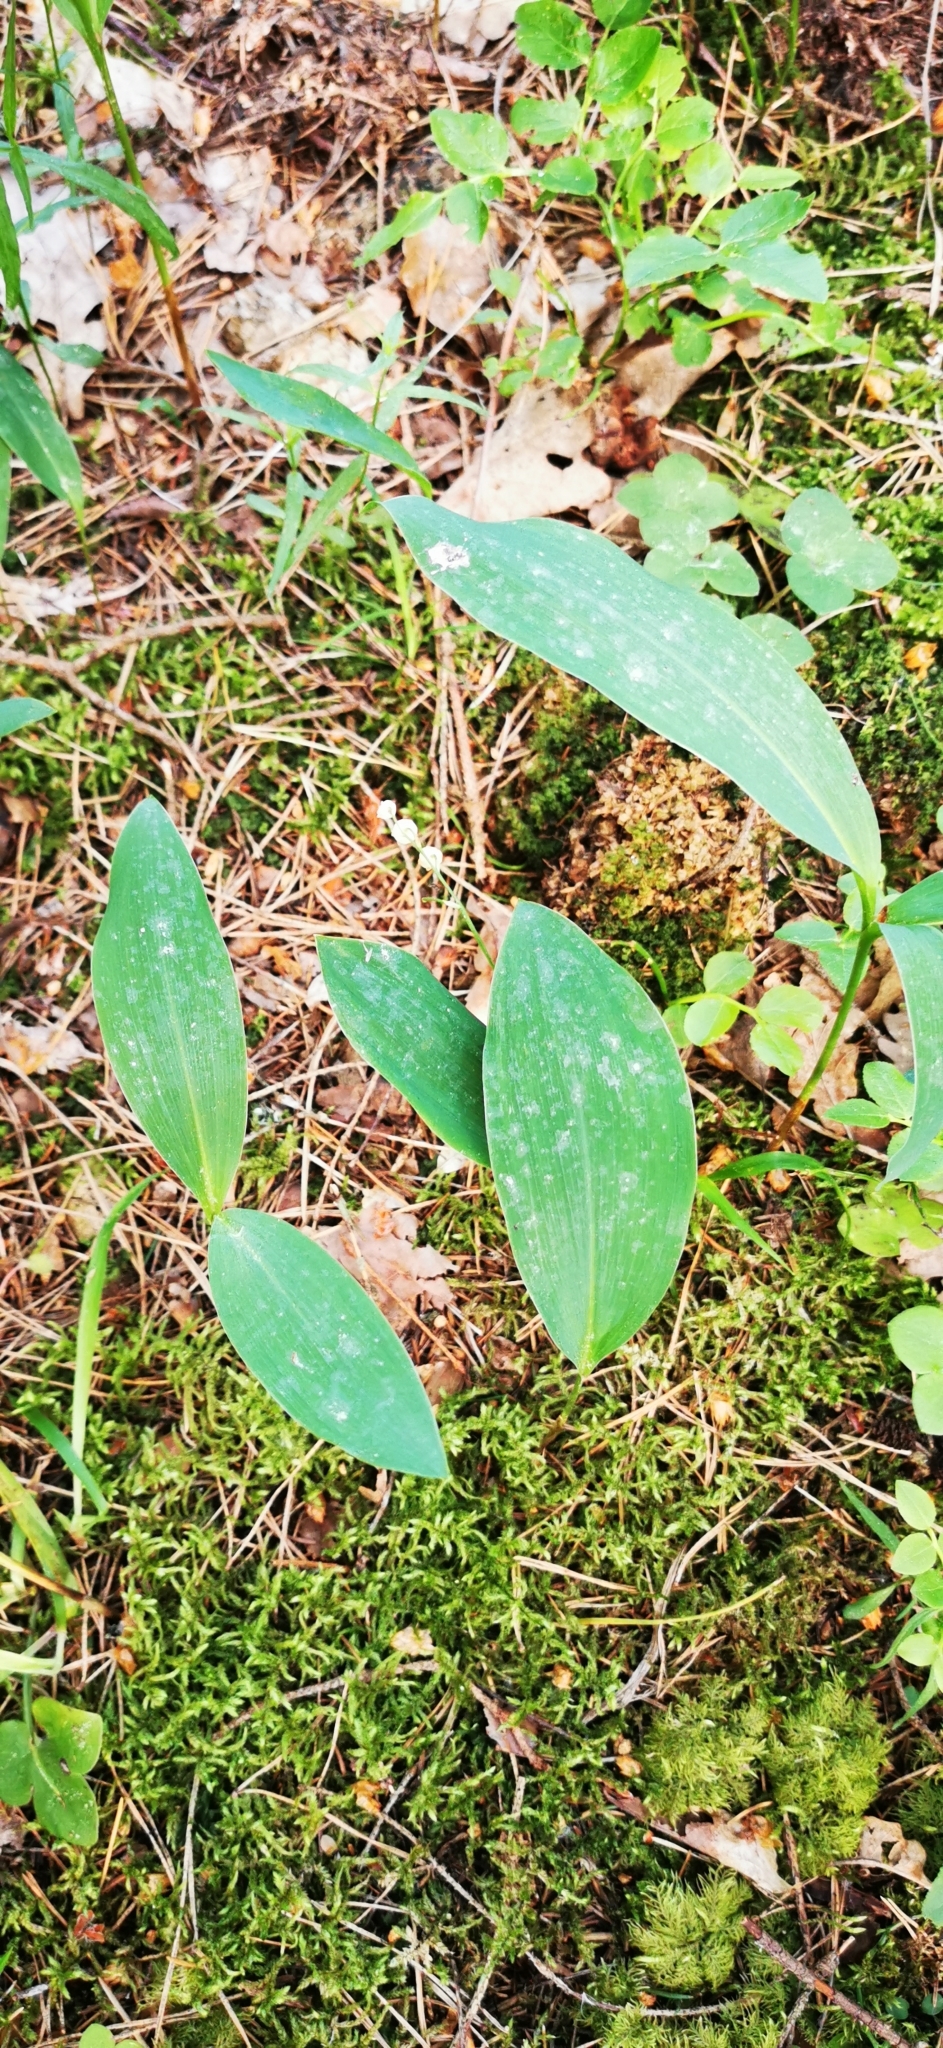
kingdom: Plantae
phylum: Tracheophyta
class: Liliopsida
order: Asparagales
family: Asparagaceae
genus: Convallaria
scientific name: Convallaria majalis
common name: Lily-of-the-valley
